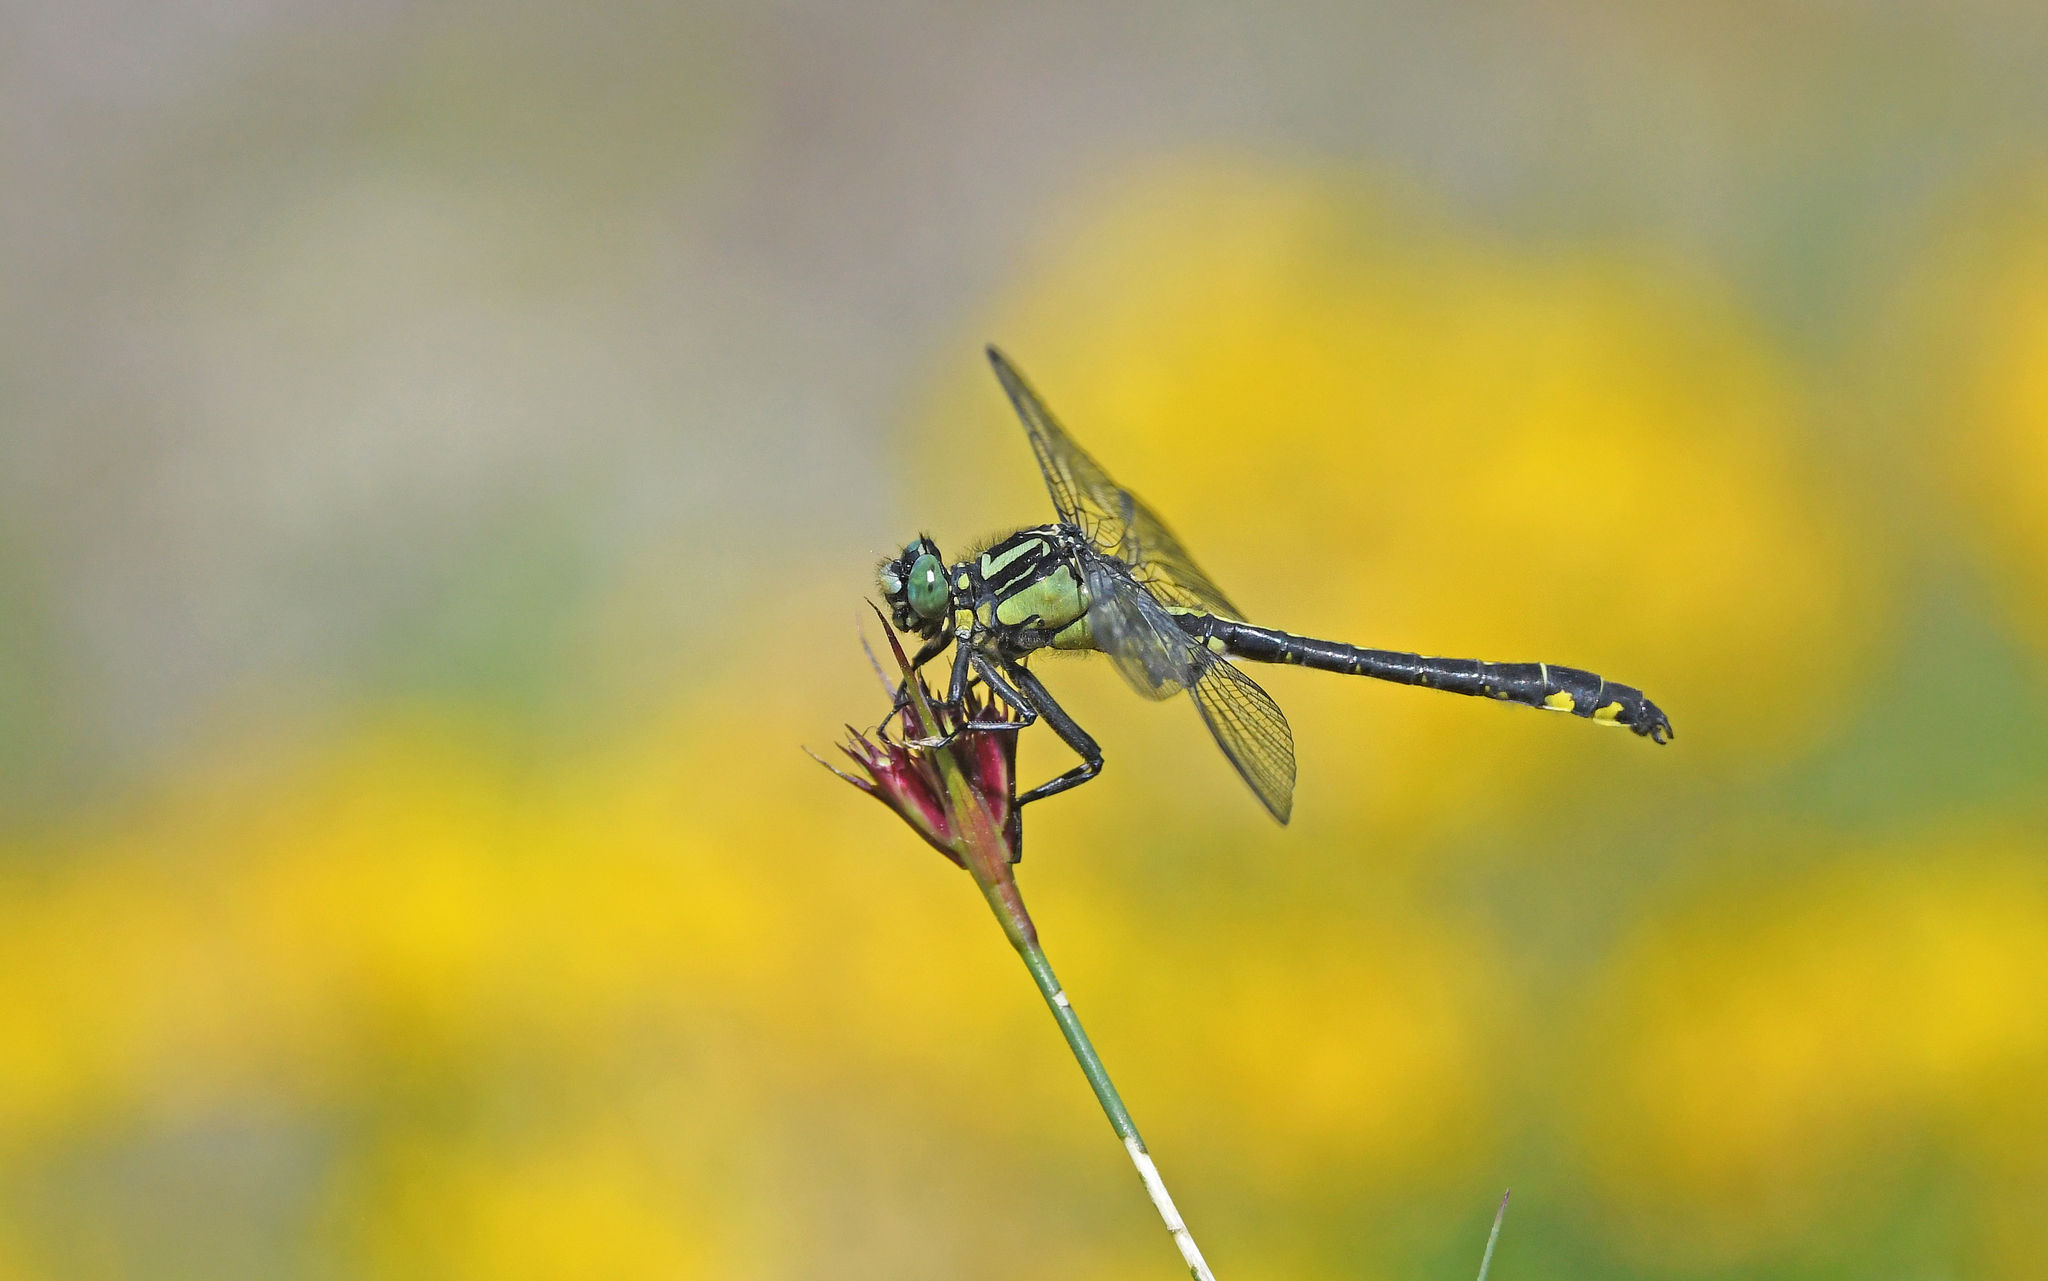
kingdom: Animalia
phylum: Arthropoda
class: Insecta
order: Odonata
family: Gomphidae
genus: Gomphus
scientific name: Gomphus vulgatissimus
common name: Club-tailed dragonfly
